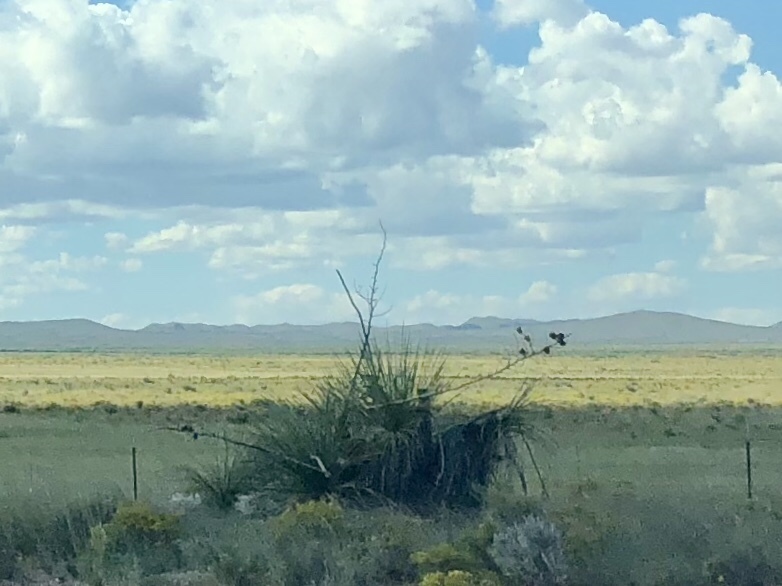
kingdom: Plantae
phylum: Tracheophyta
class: Liliopsida
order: Asparagales
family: Asparagaceae
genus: Yucca
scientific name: Yucca elata
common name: Palmella
